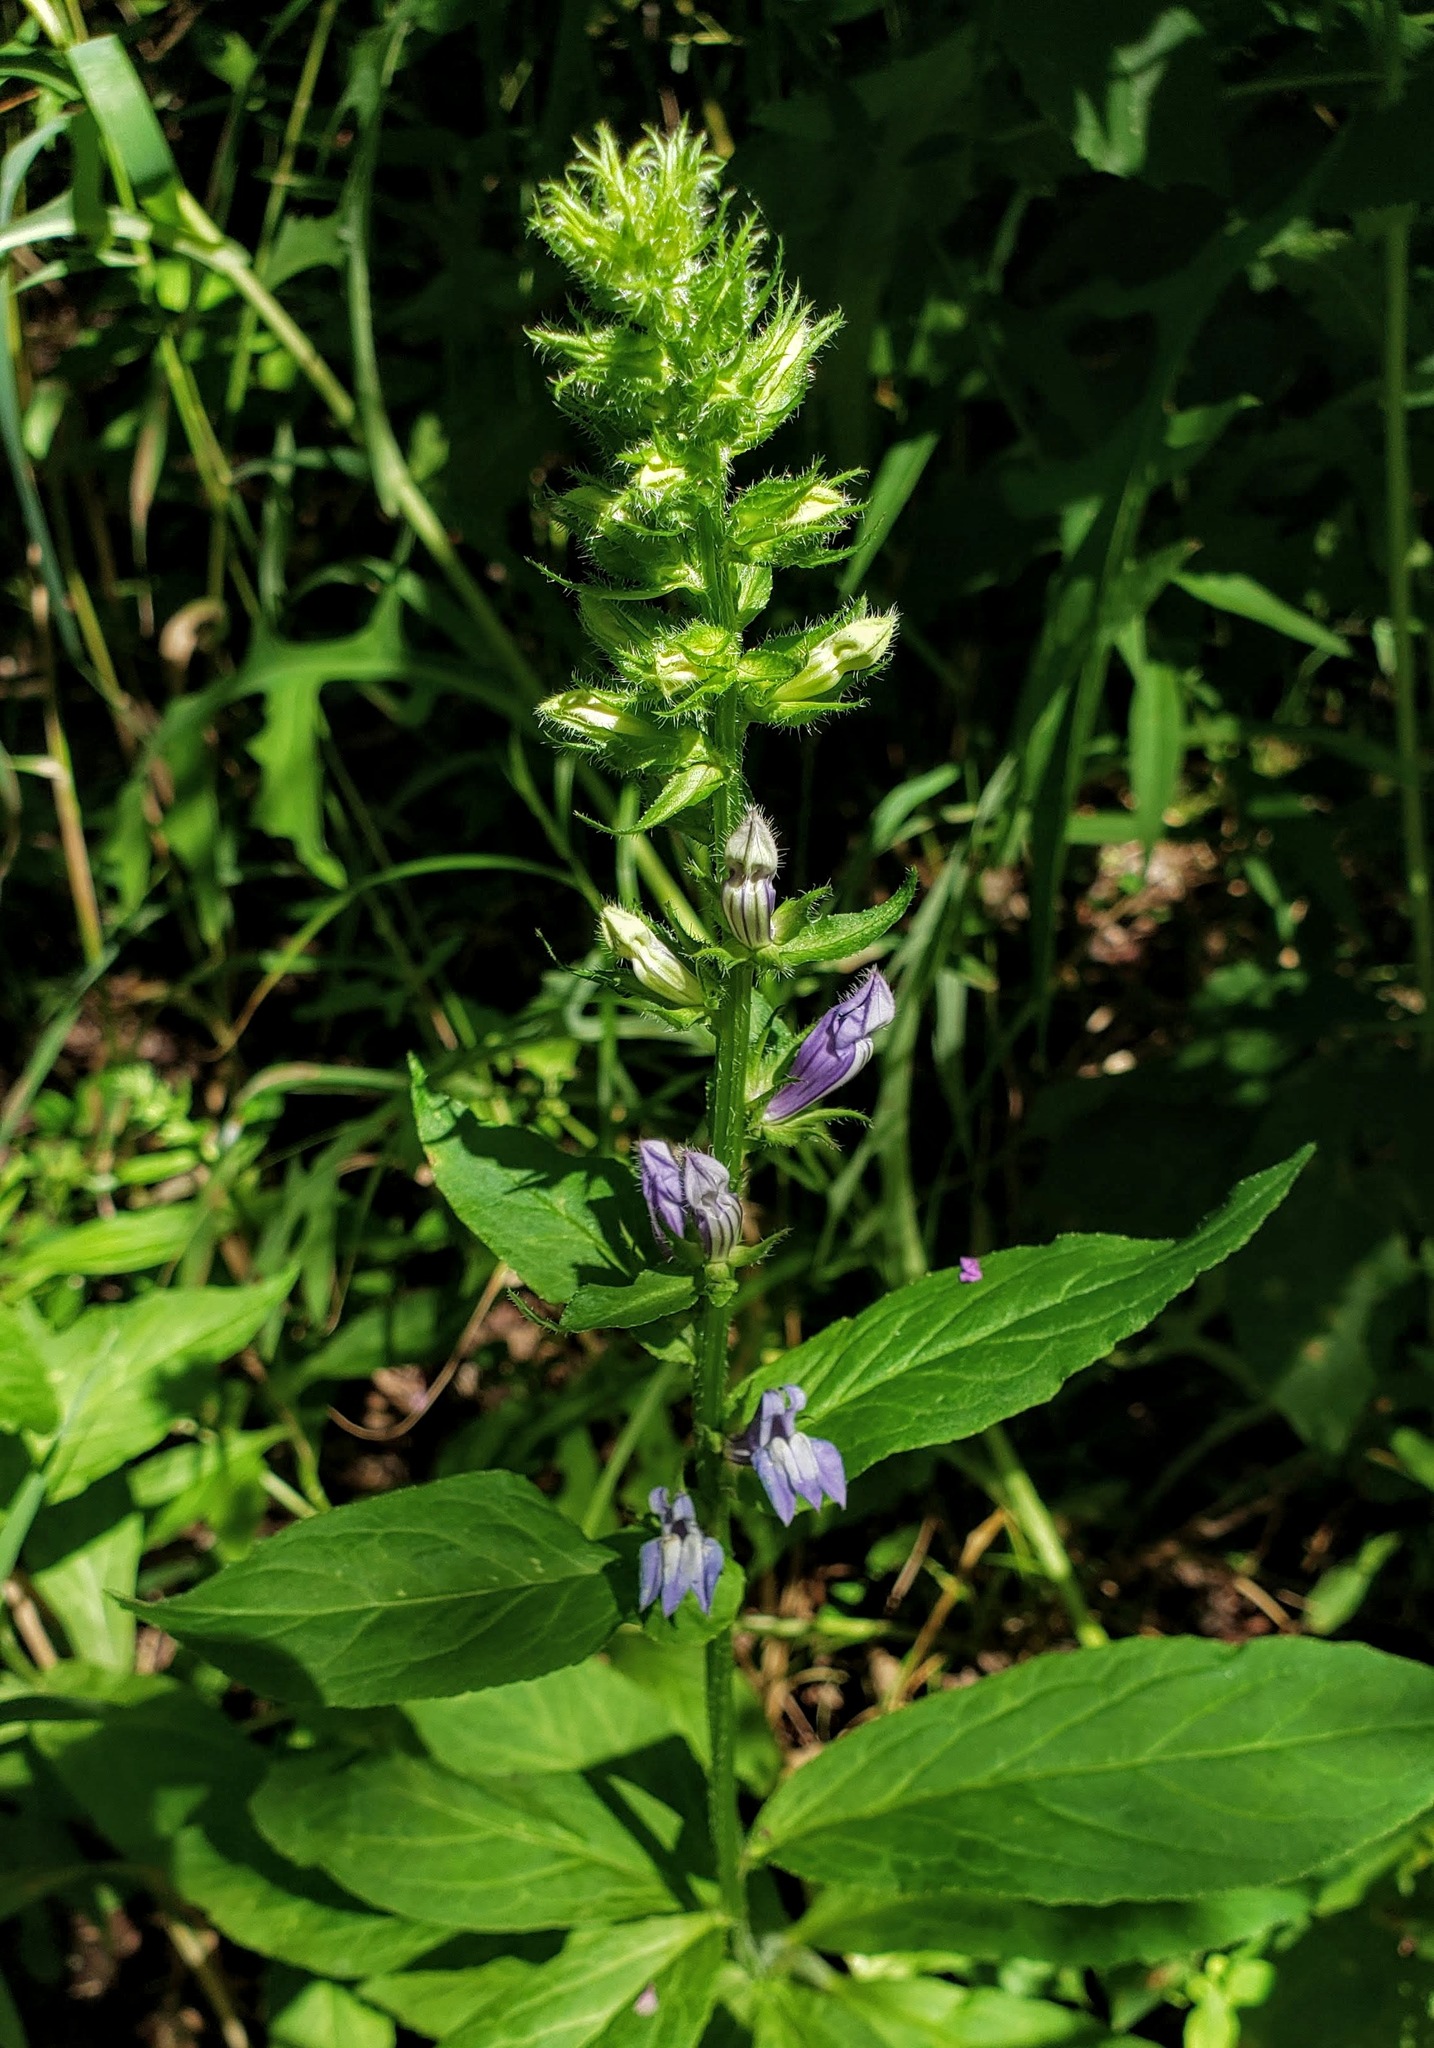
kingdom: Plantae
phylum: Tracheophyta
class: Magnoliopsida
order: Asterales
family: Campanulaceae
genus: Lobelia
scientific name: Lobelia siphilitica
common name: Great lobelia
